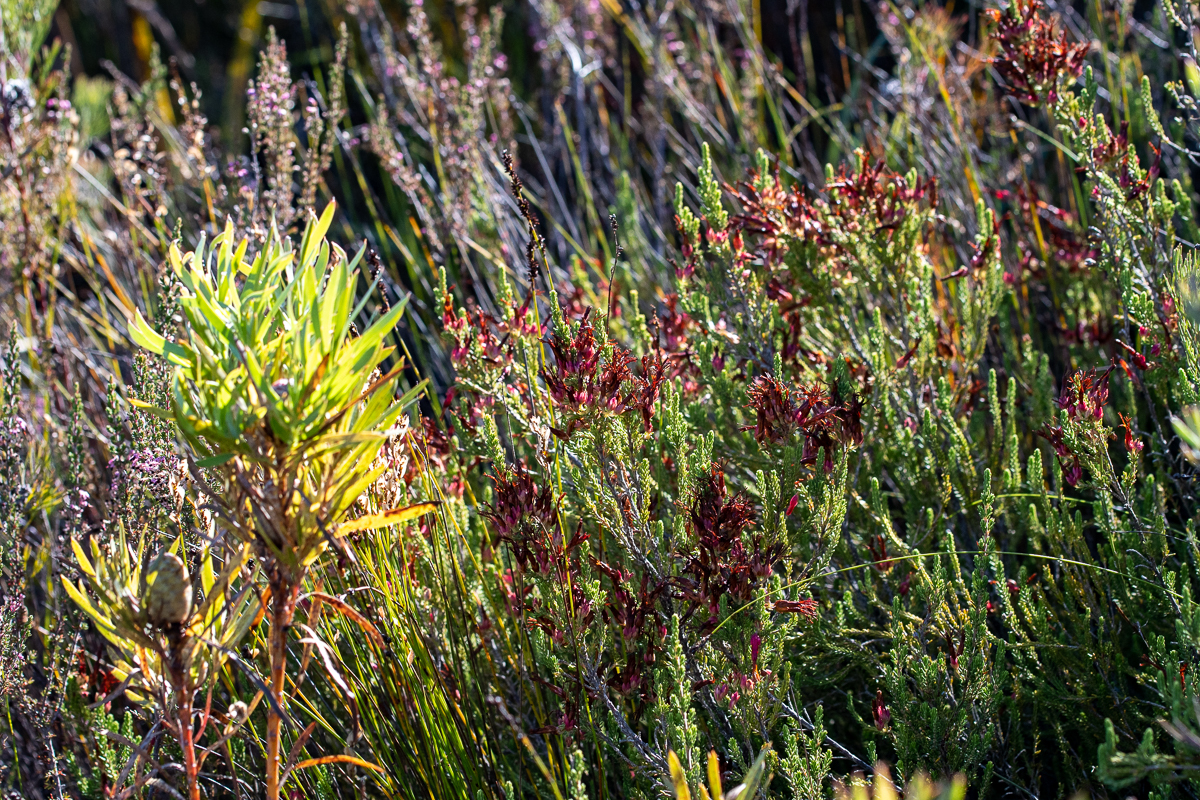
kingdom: Plantae
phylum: Tracheophyta
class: Magnoliopsida
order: Ericales
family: Ericaceae
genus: Erica
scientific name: Erica plukenetii
